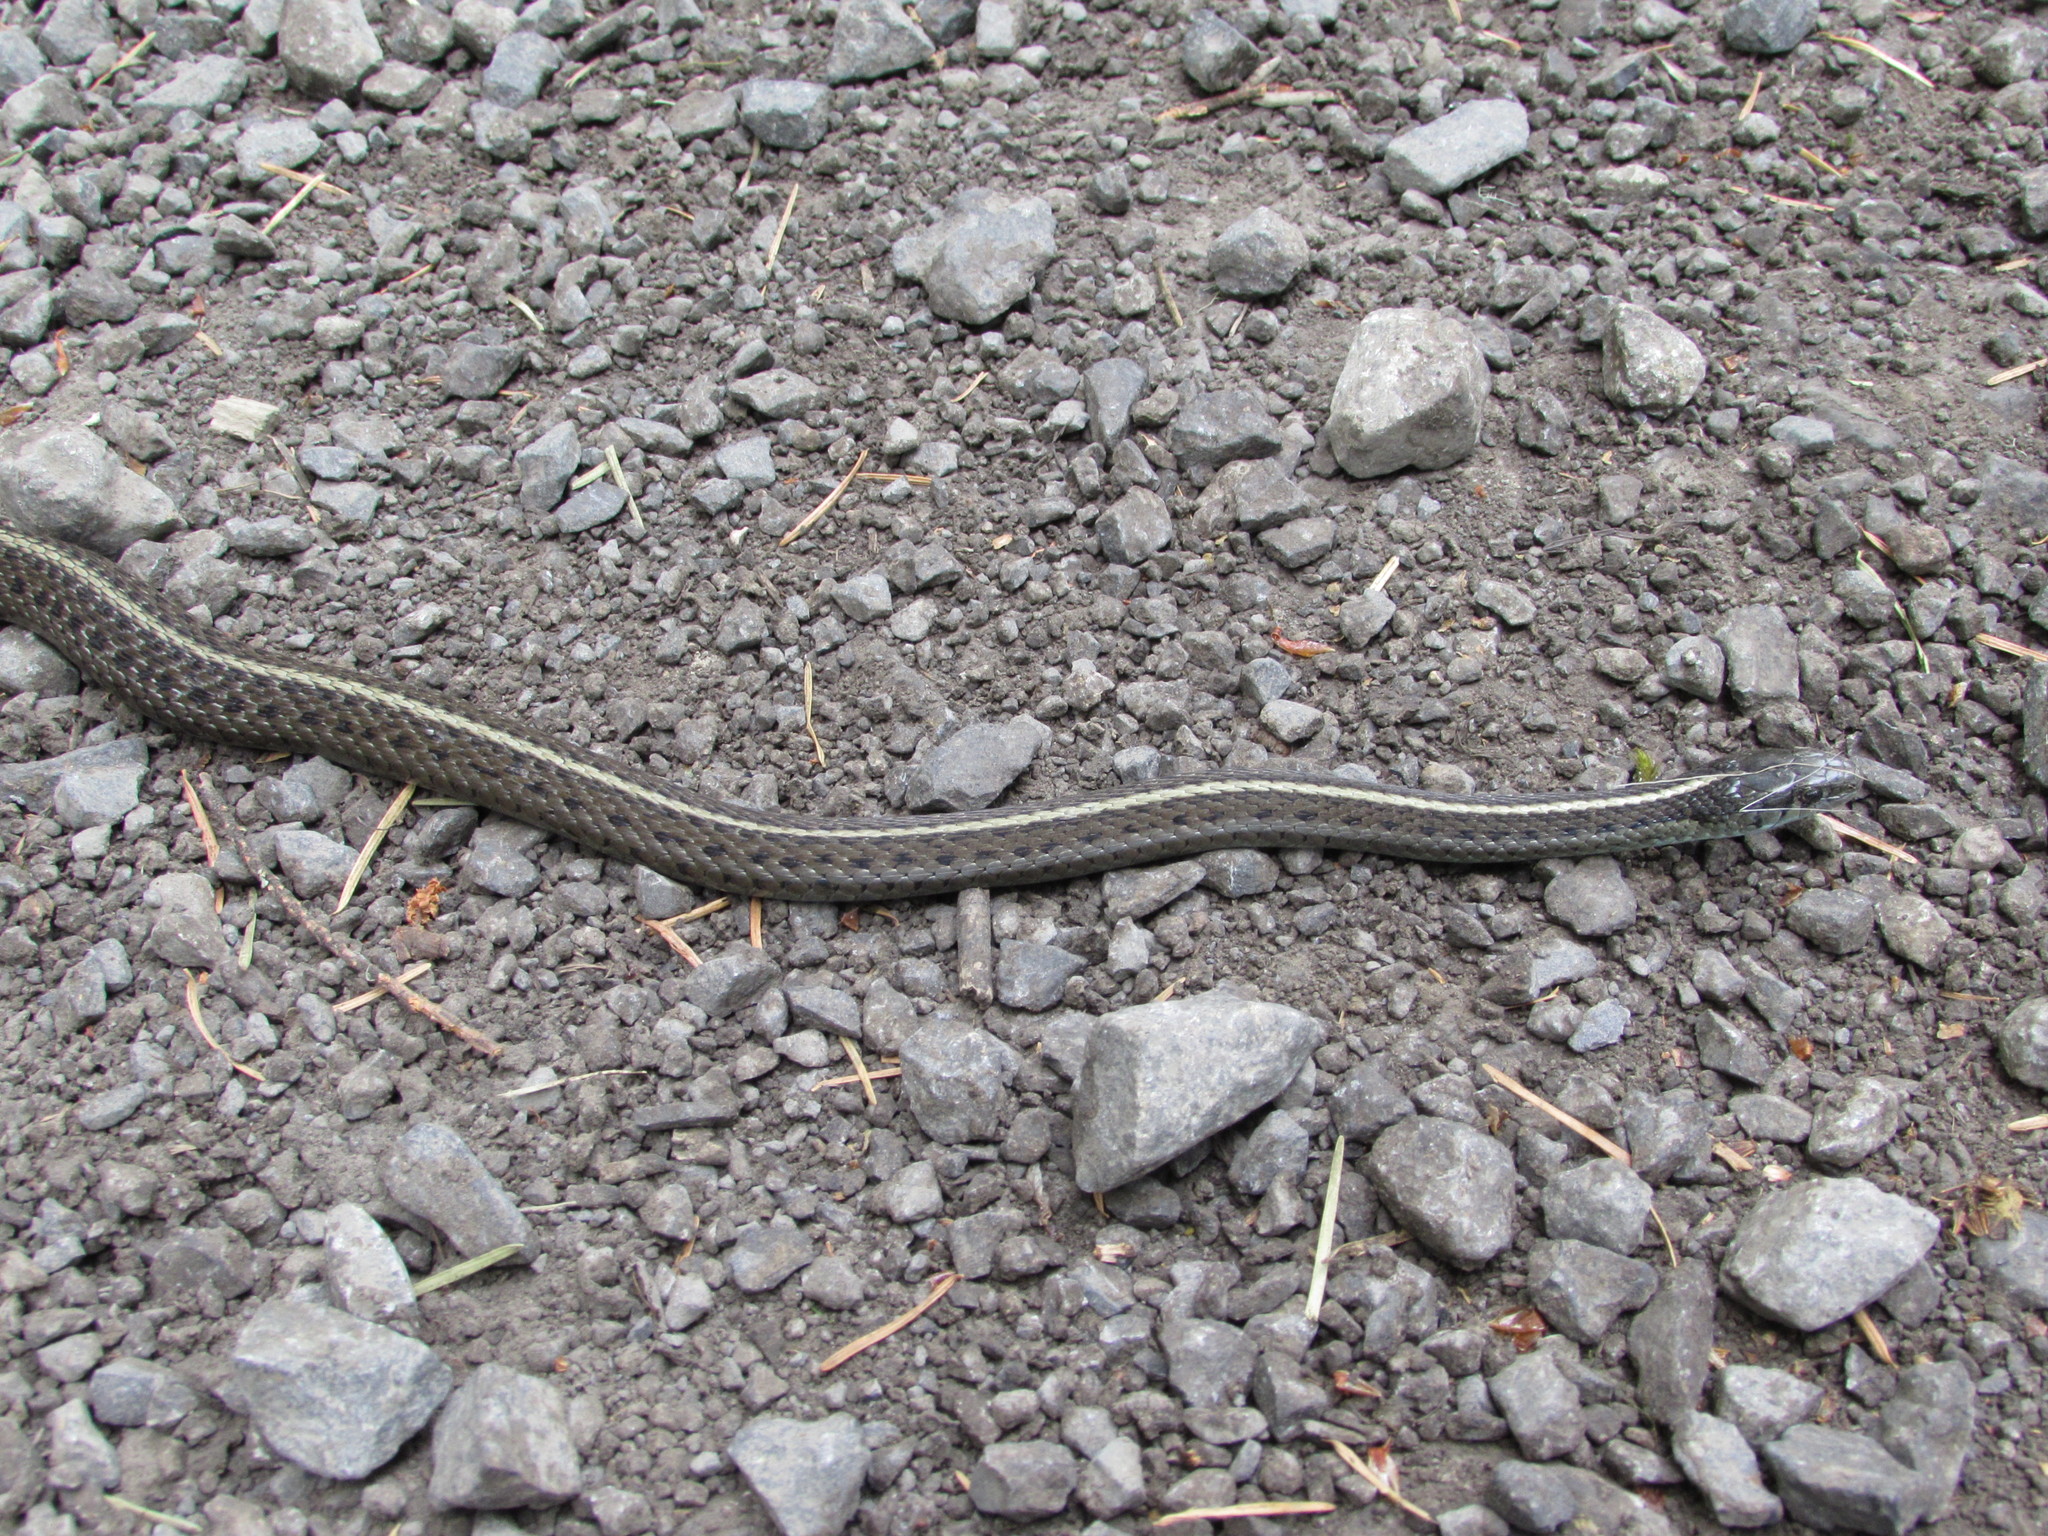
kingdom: Animalia
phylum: Chordata
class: Squamata
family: Colubridae
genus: Thamnophis
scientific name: Thamnophis ordinoides
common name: Northwestern garter snake
